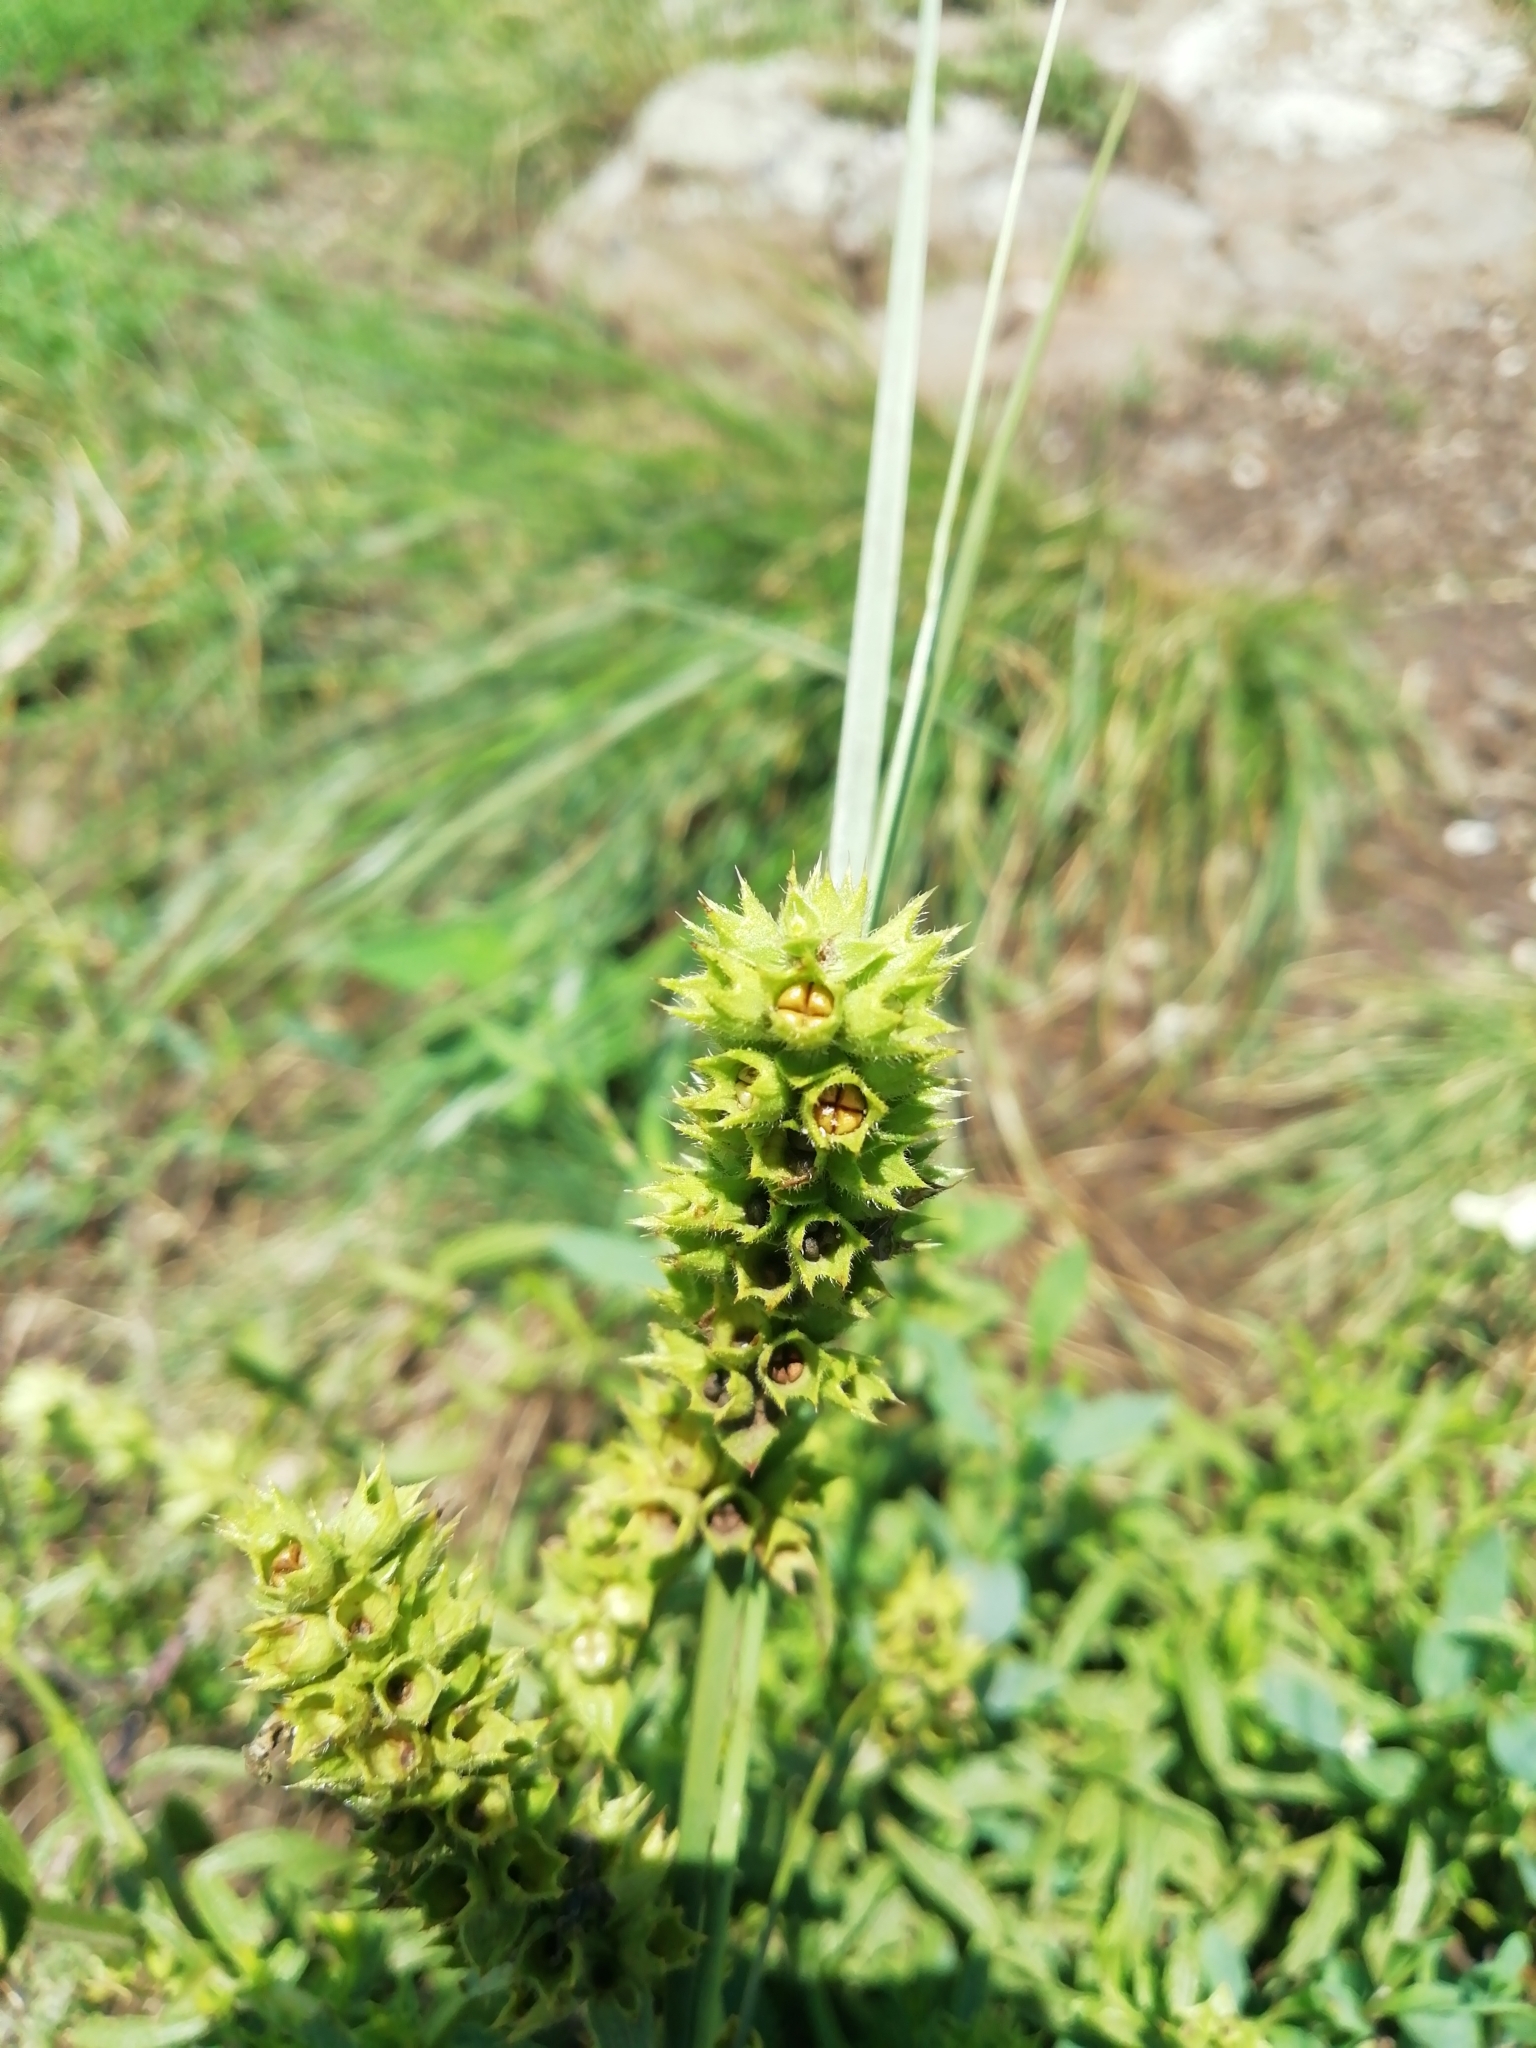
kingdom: Plantae
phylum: Tracheophyta
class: Magnoliopsida
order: Lamiales
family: Lamiaceae
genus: Stachys
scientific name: Stachys recta
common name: Perennial yellow-woundwort
